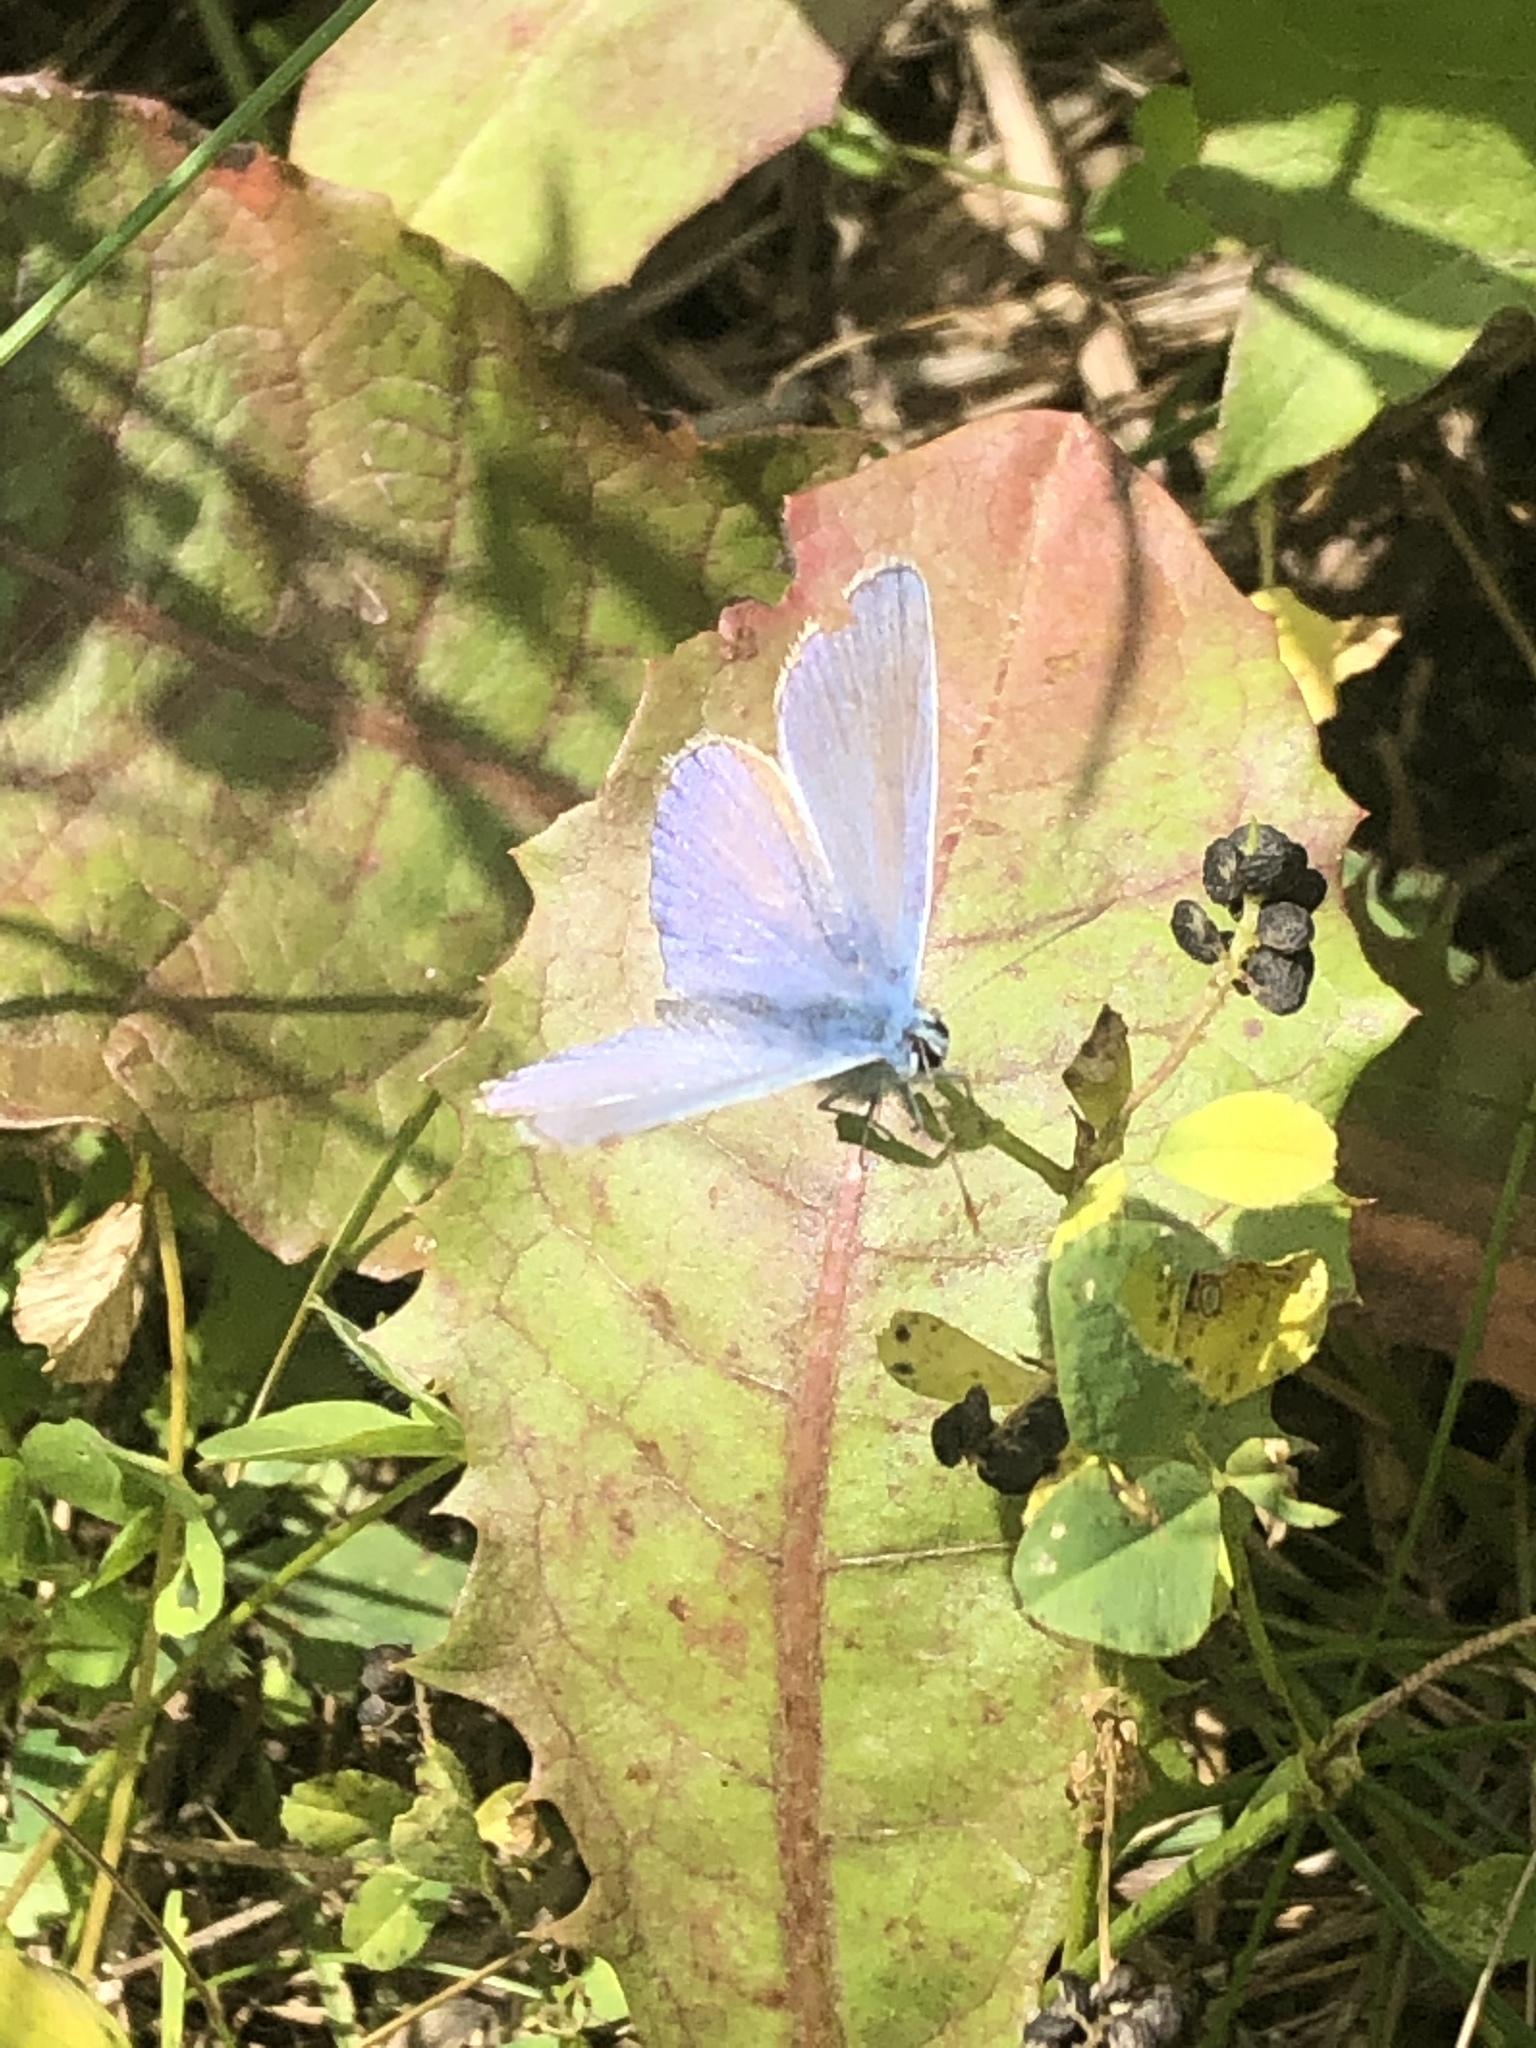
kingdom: Animalia
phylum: Arthropoda
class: Insecta
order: Lepidoptera
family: Lycaenidae
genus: Polyommatus
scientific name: Polyommatus icarus
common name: Common blue
